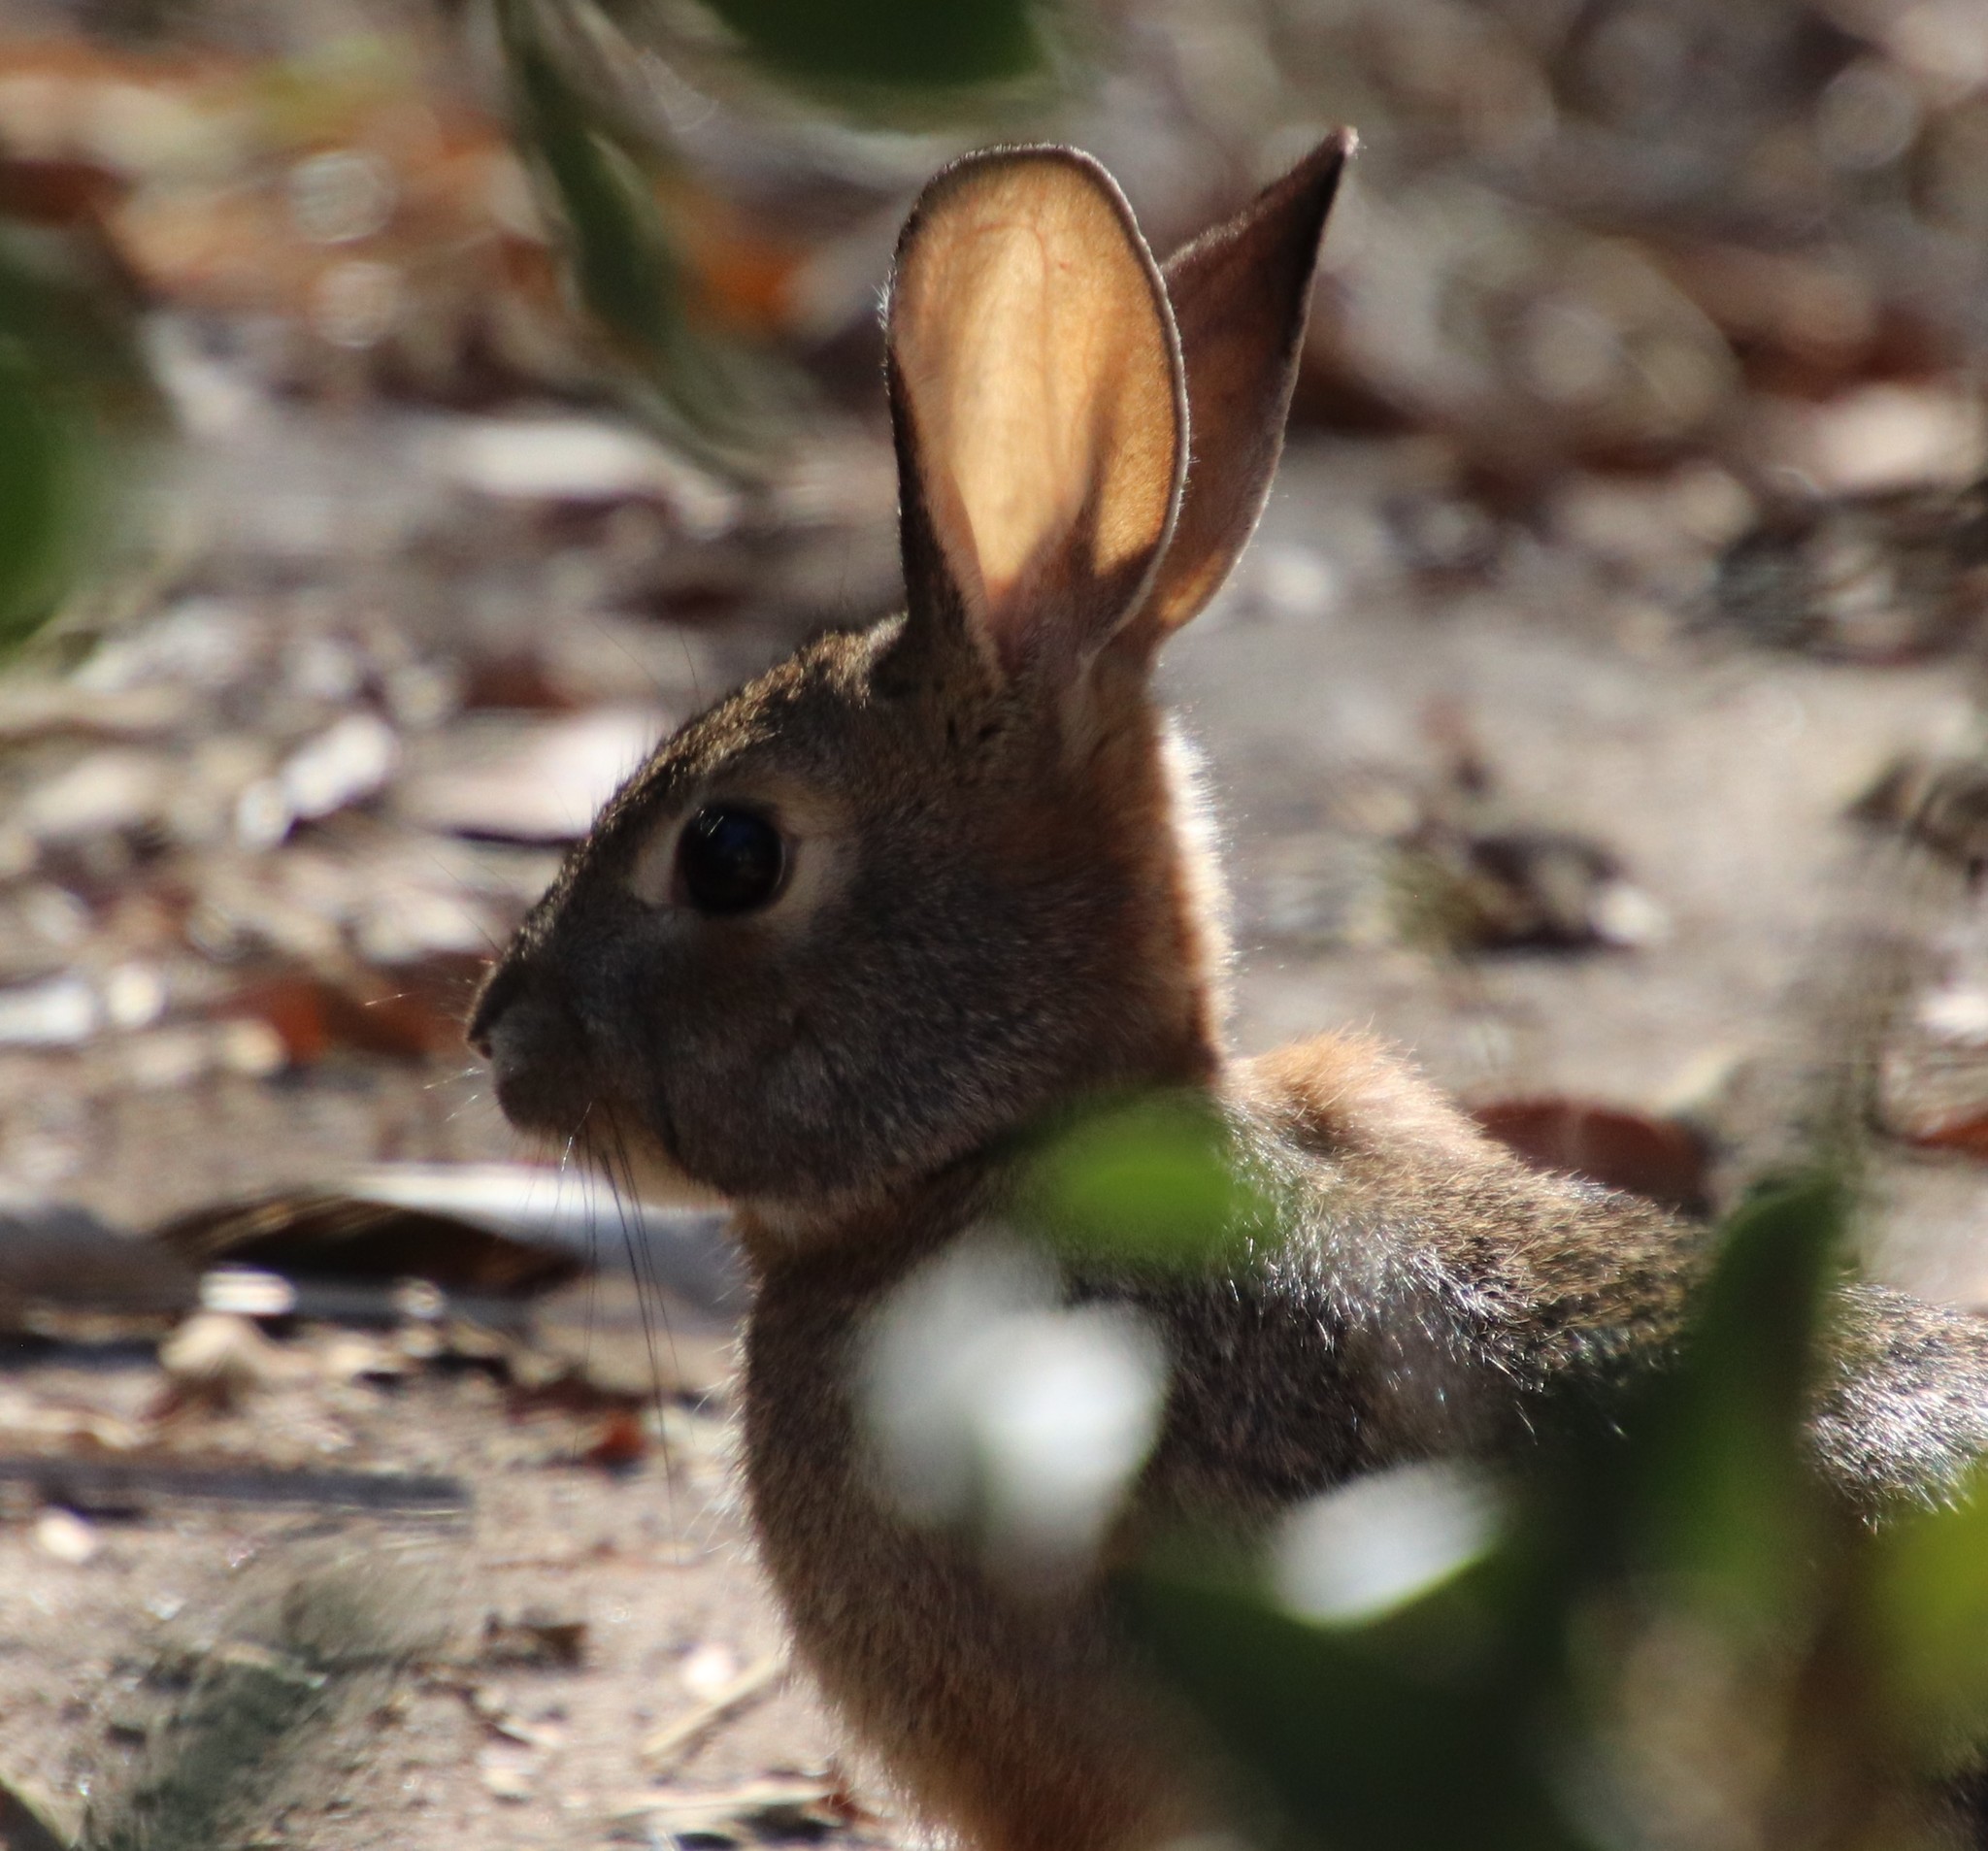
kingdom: Animalia
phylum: Chordata
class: Mammalia
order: Lagomorpha
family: Leporidae
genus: Sylvilagus
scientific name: Sylvilagus audubonii
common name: Desert cottontail
